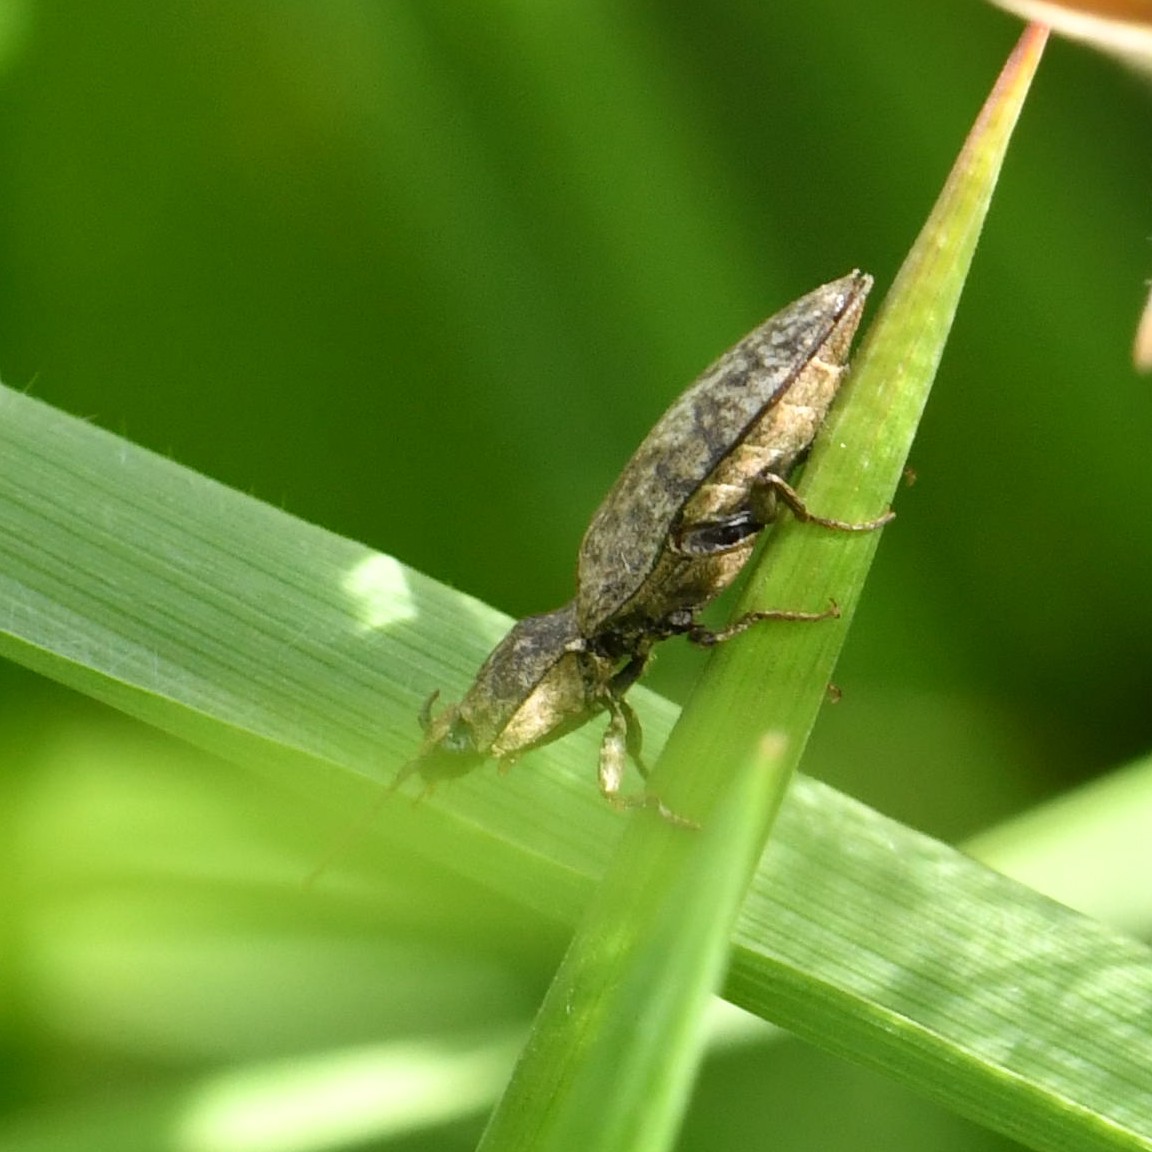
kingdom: Animalia
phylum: Arthropoda
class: Insecta
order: Coleoptera
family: Elateridae
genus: Agrypnus
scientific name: Agrypnus murinus
